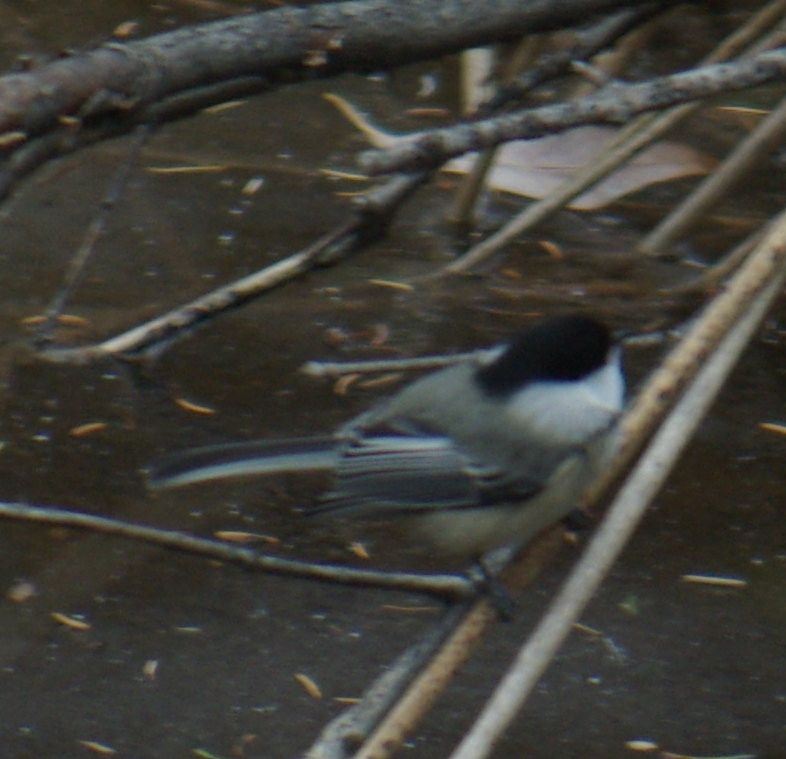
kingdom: Animalia
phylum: Chordata
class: Aves
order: Passeriformes
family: Paridae
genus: Poecile
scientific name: Poecile atricapillus
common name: Black-capped chickadee
